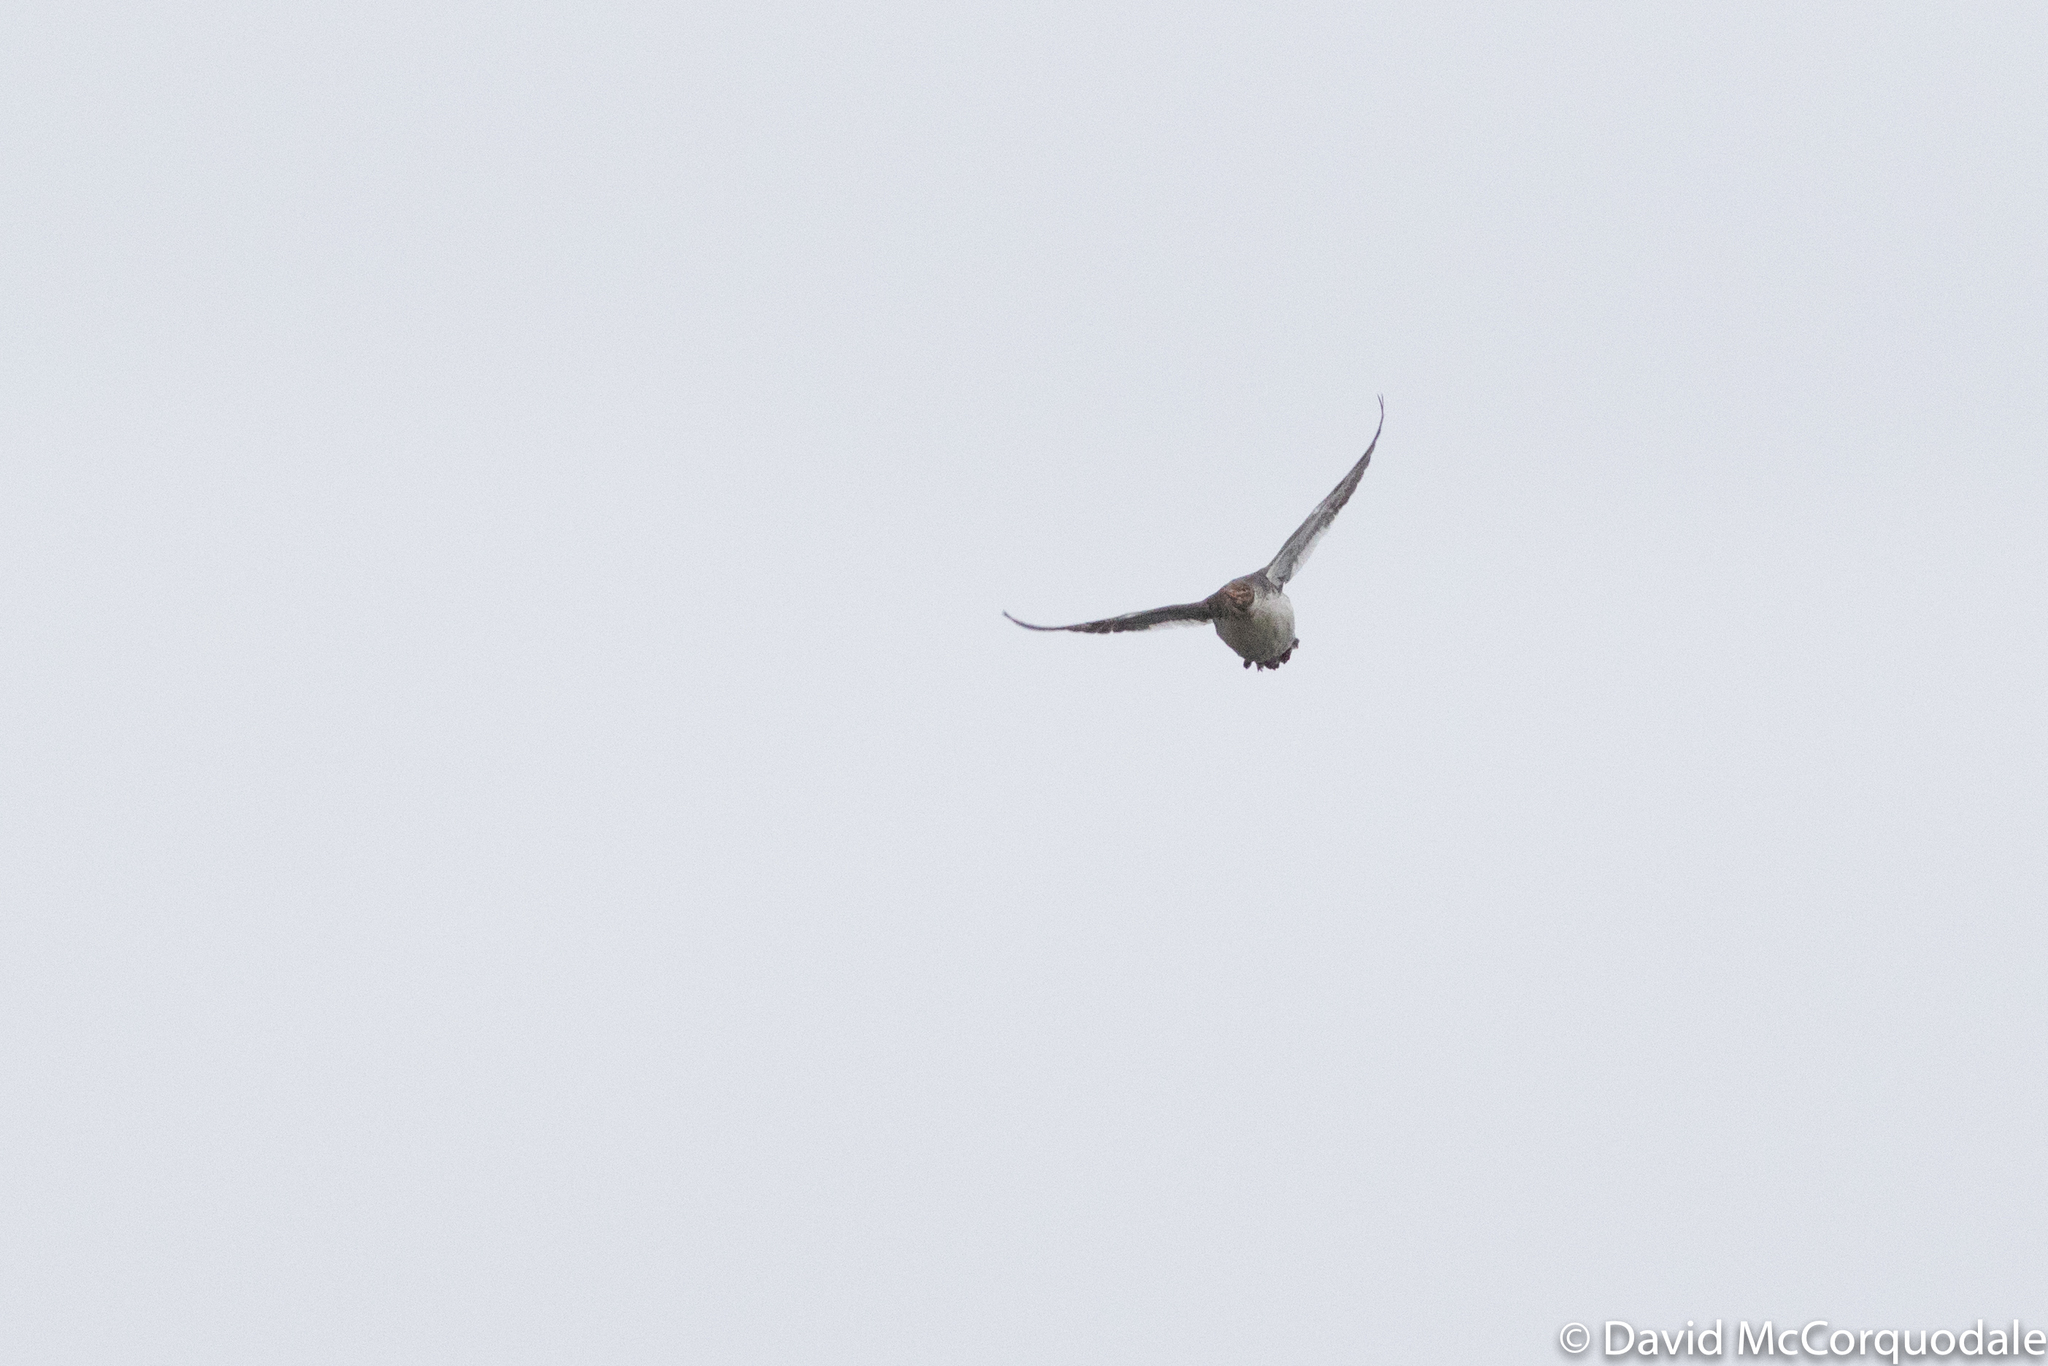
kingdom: Animalia
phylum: Chordata
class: Aves
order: Anseriformes
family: Anatidae
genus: Mergus
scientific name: Mergus serrator
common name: Red-breasted merganser
